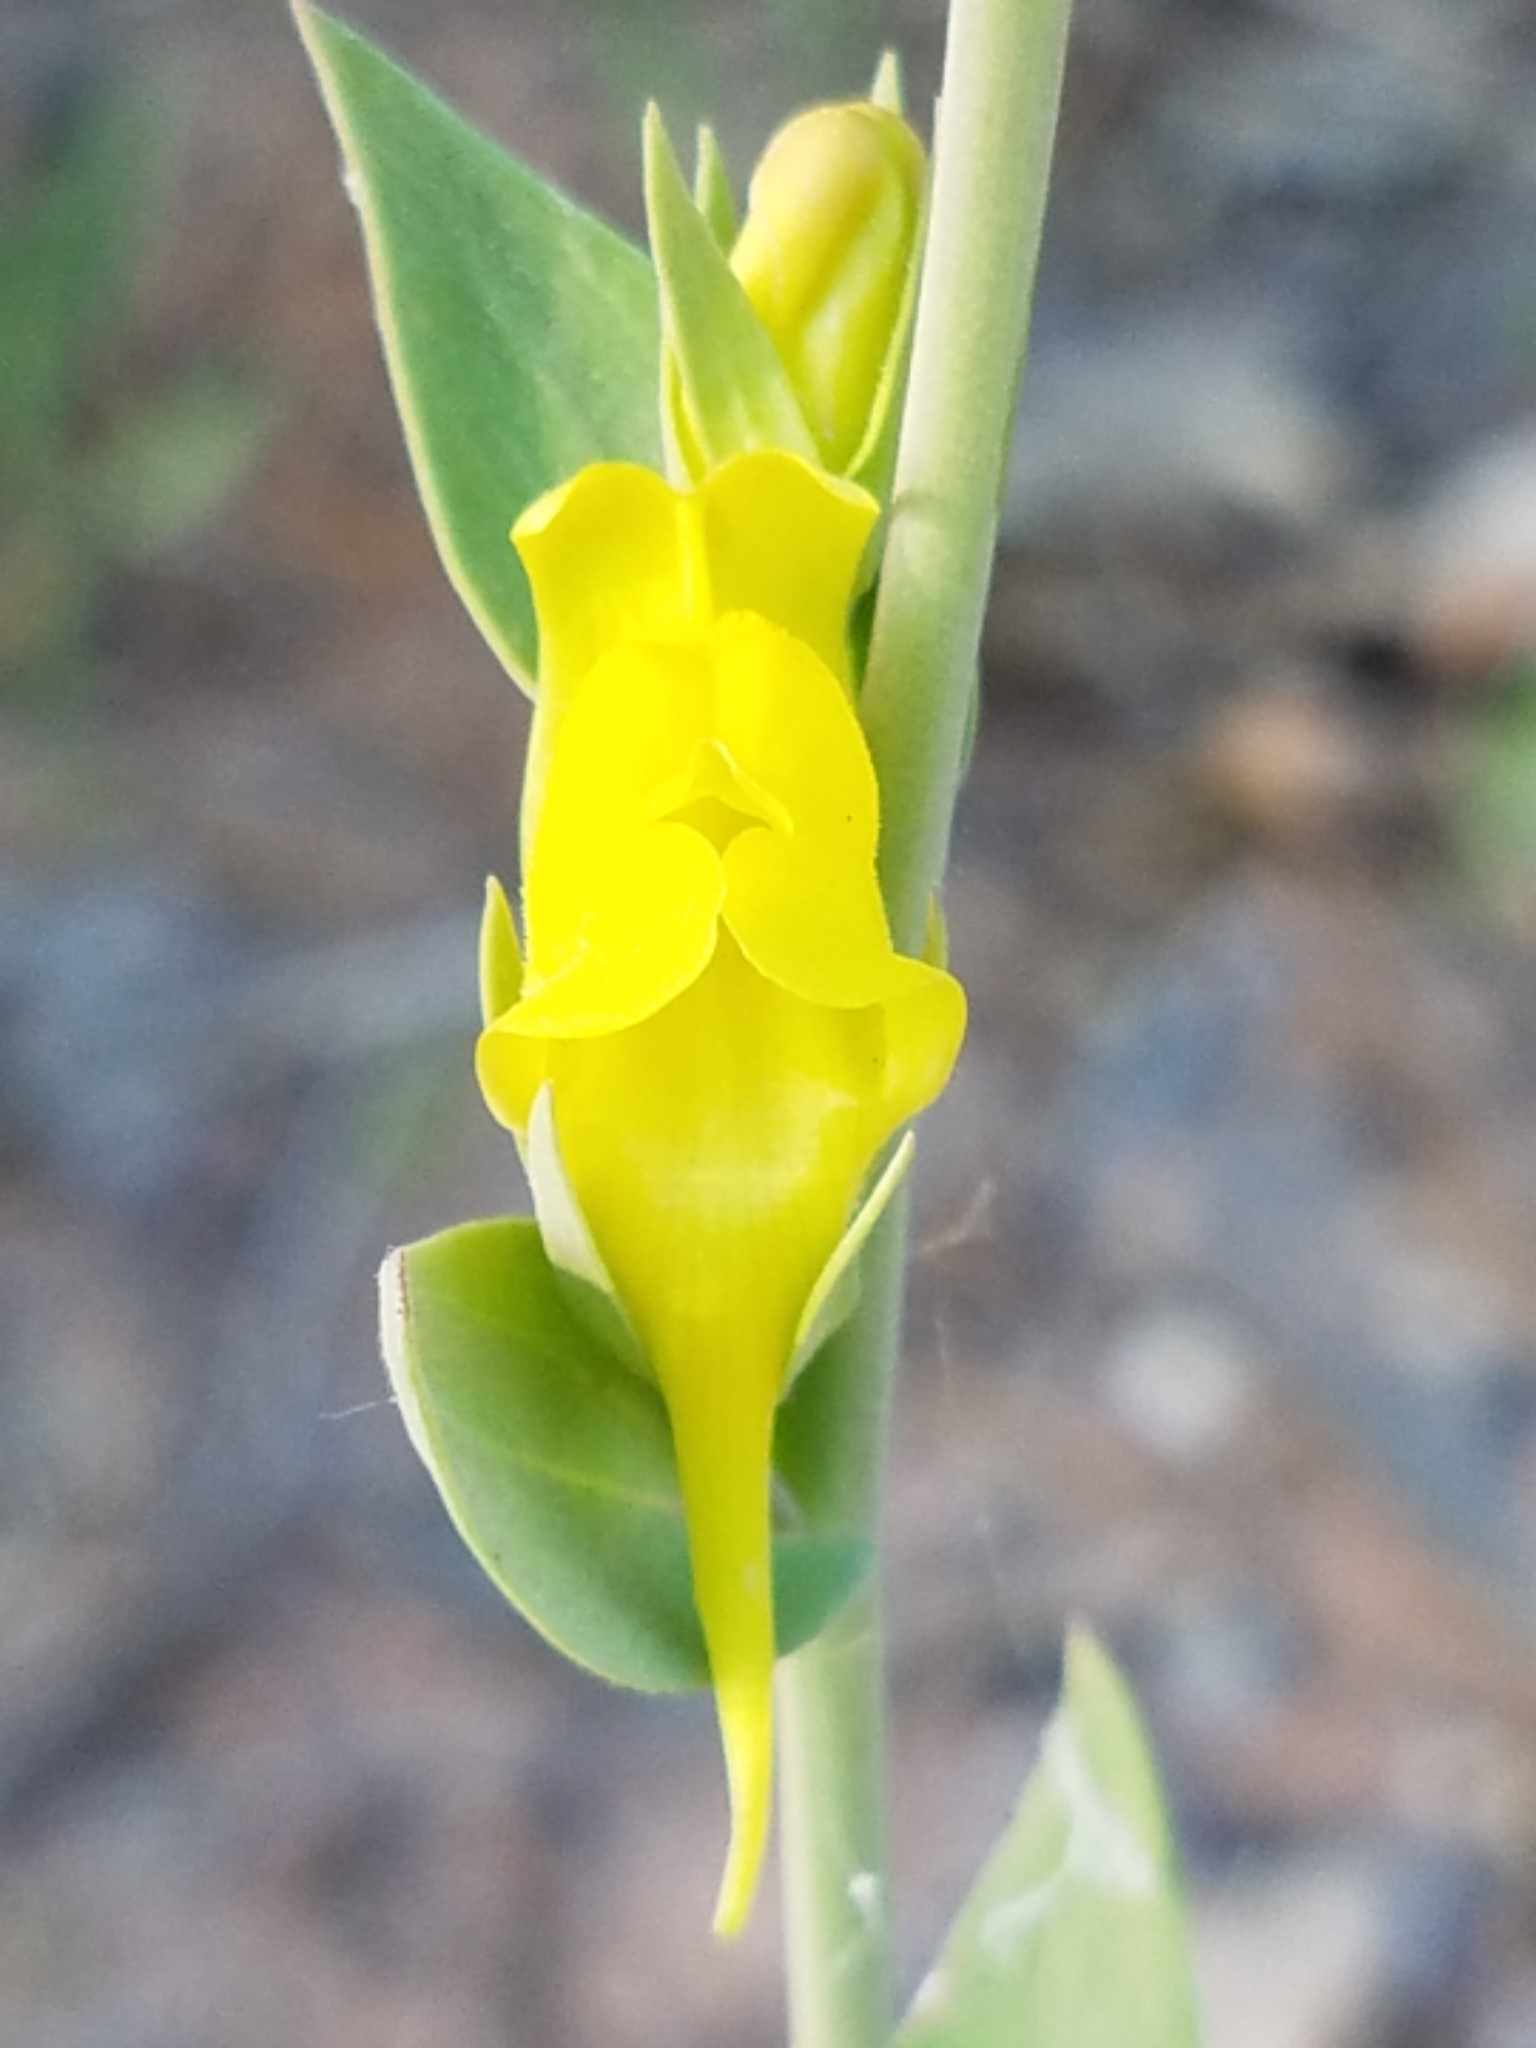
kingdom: Plantae
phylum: Tracheophyta
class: Magnoliopsida
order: Lamiales
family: Plantaginaceae
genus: Linaria
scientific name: Linaria dalmatica
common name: Dalmatian toadflax
